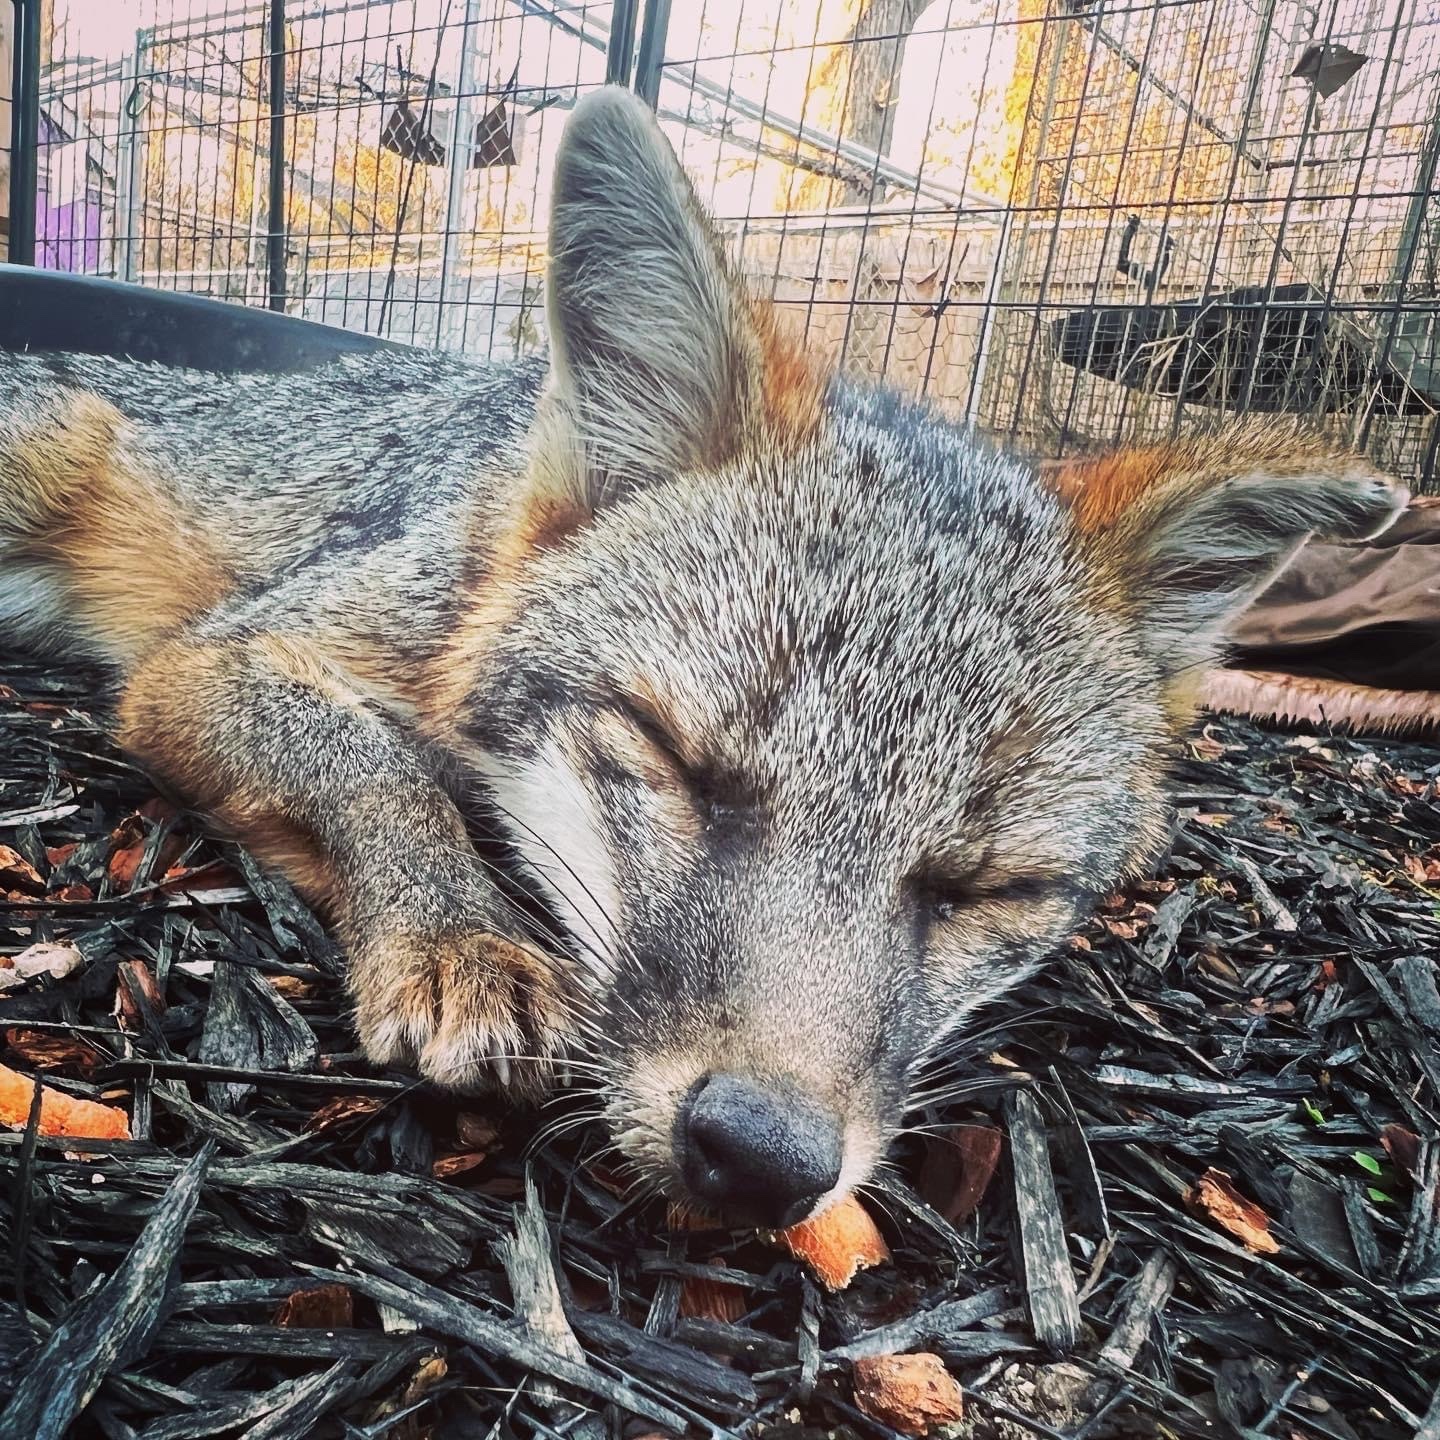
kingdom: Animalia
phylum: Chordata
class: Mammalia
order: Carnivora
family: Canidae
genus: Urocyon
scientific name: Urocyon cinereoargenteus
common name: Gray fox
